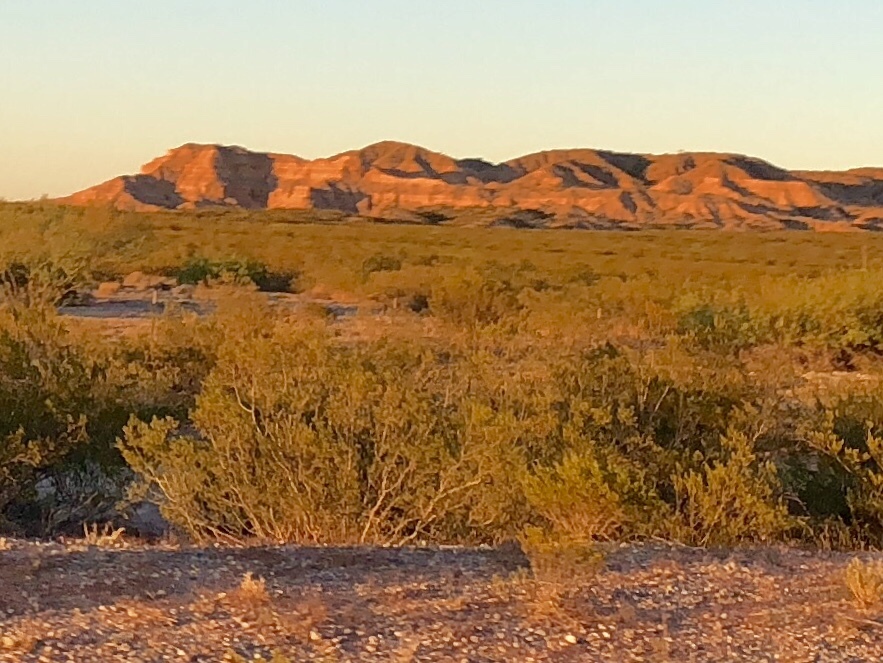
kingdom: Plantae
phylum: Tracheophyta
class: Magnoliopsida
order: Zygophyllales
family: Zygophyllaceae
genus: Larrea
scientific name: Larrea tridentata
